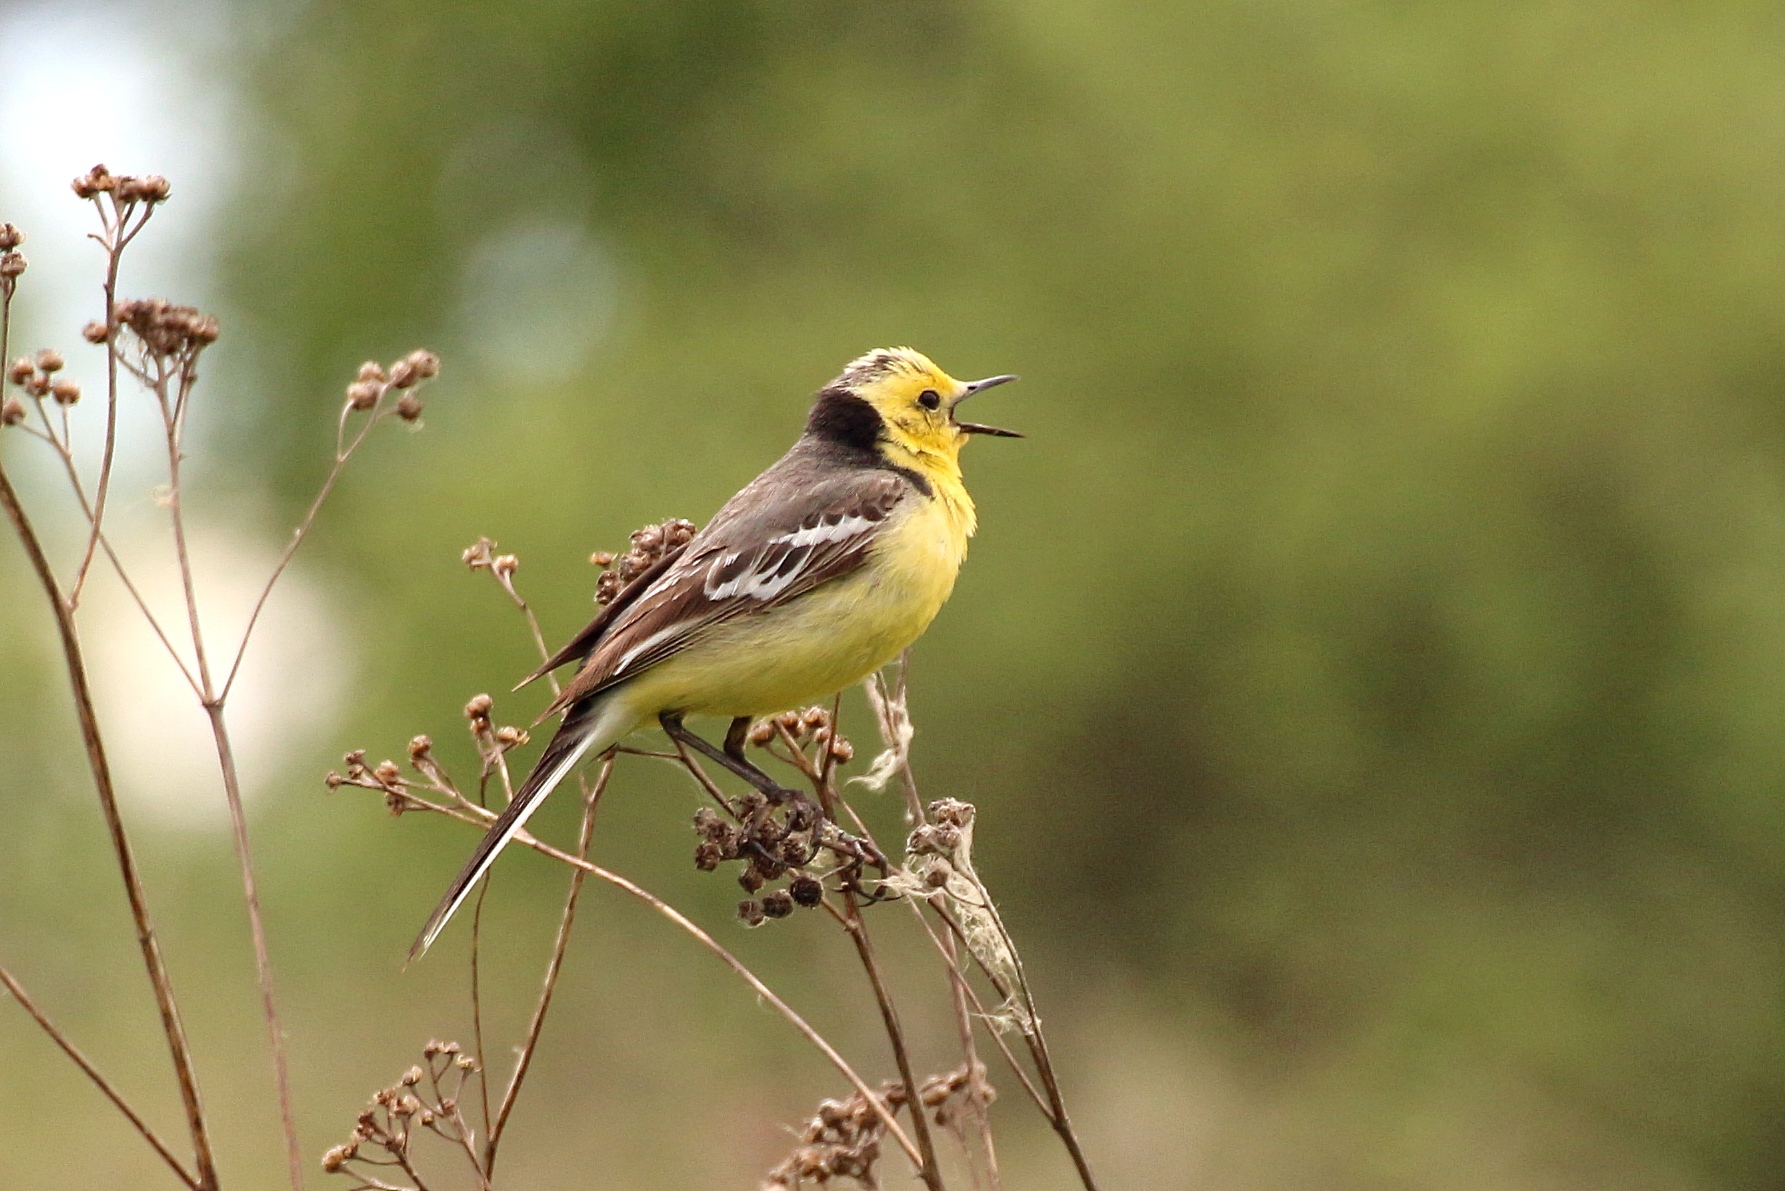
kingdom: Animalia
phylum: Chordata
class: Aves
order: Passeriformes
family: Motacillidae
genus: Motacilla
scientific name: Motacilla citreola
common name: Citrine wagtail
